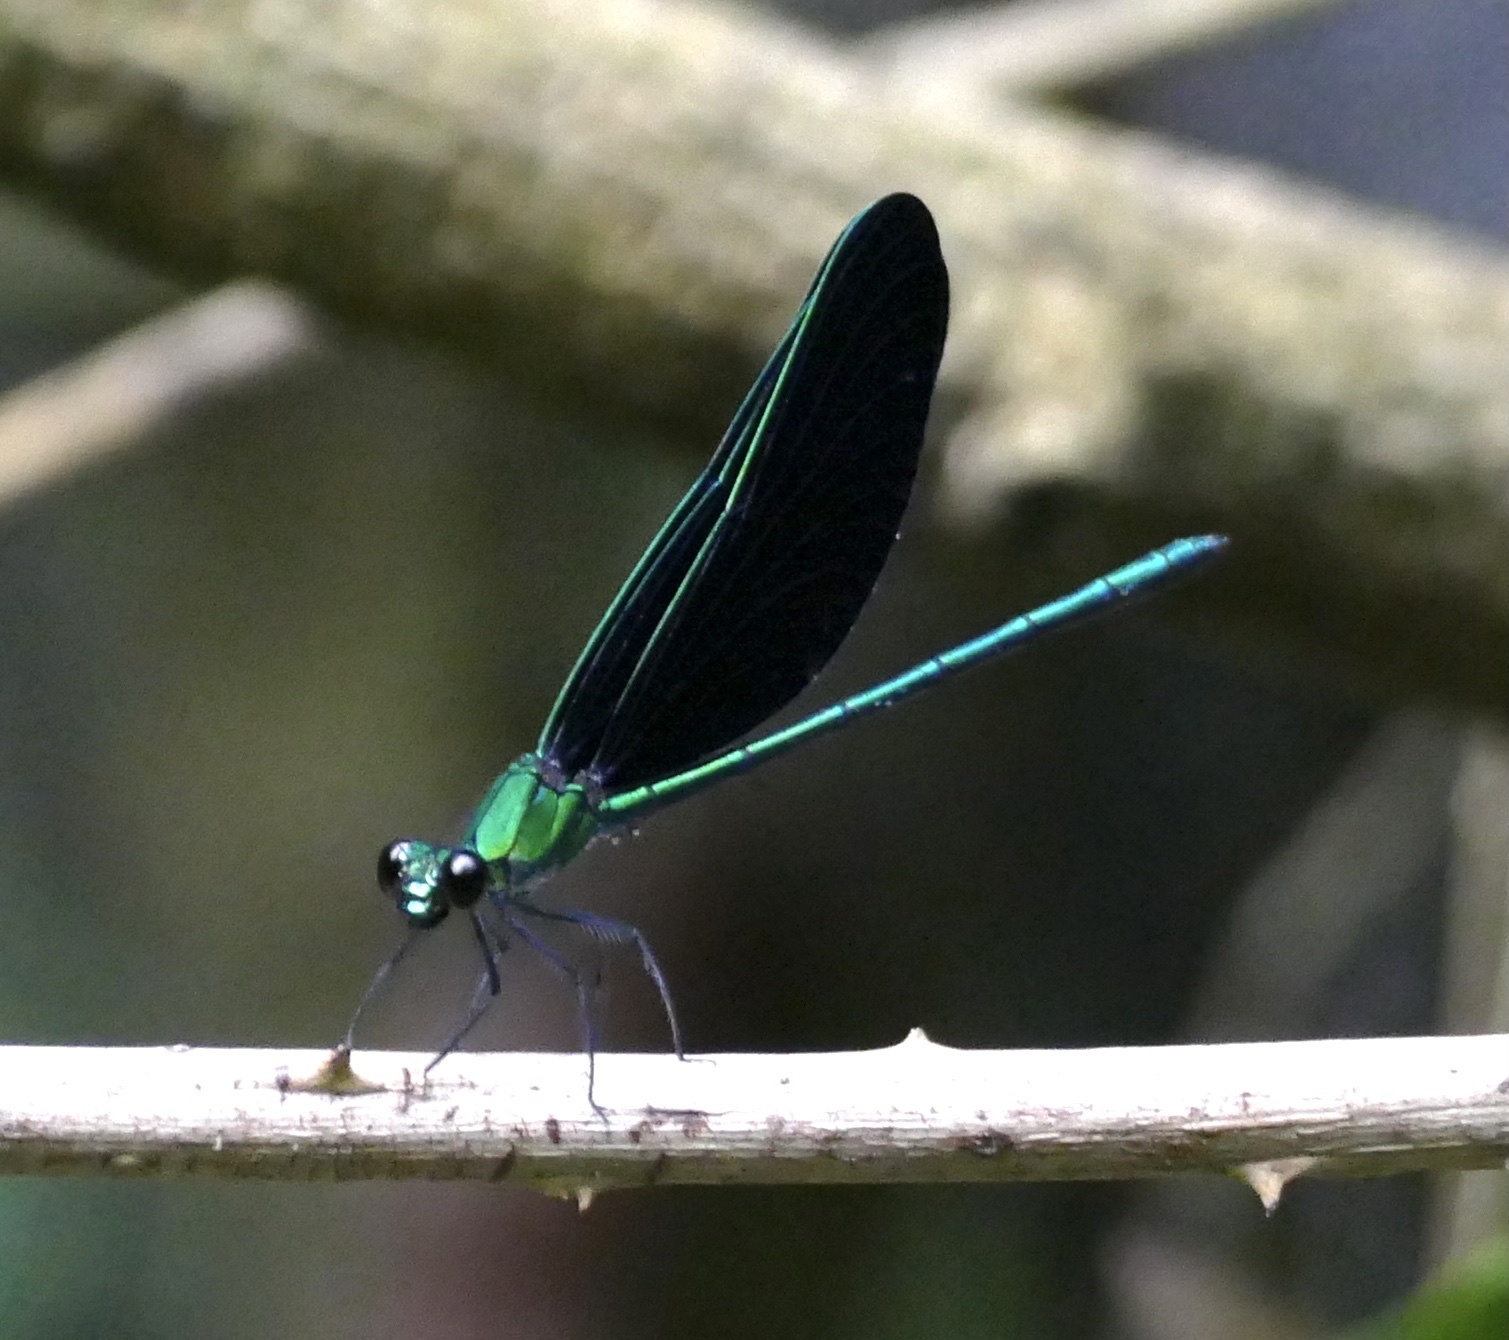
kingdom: Animalia
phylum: Arthropoda
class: Insecta
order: Odonata
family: Calopterygidae
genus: Sapho
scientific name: Sapho ciliata
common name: Western bluewing
